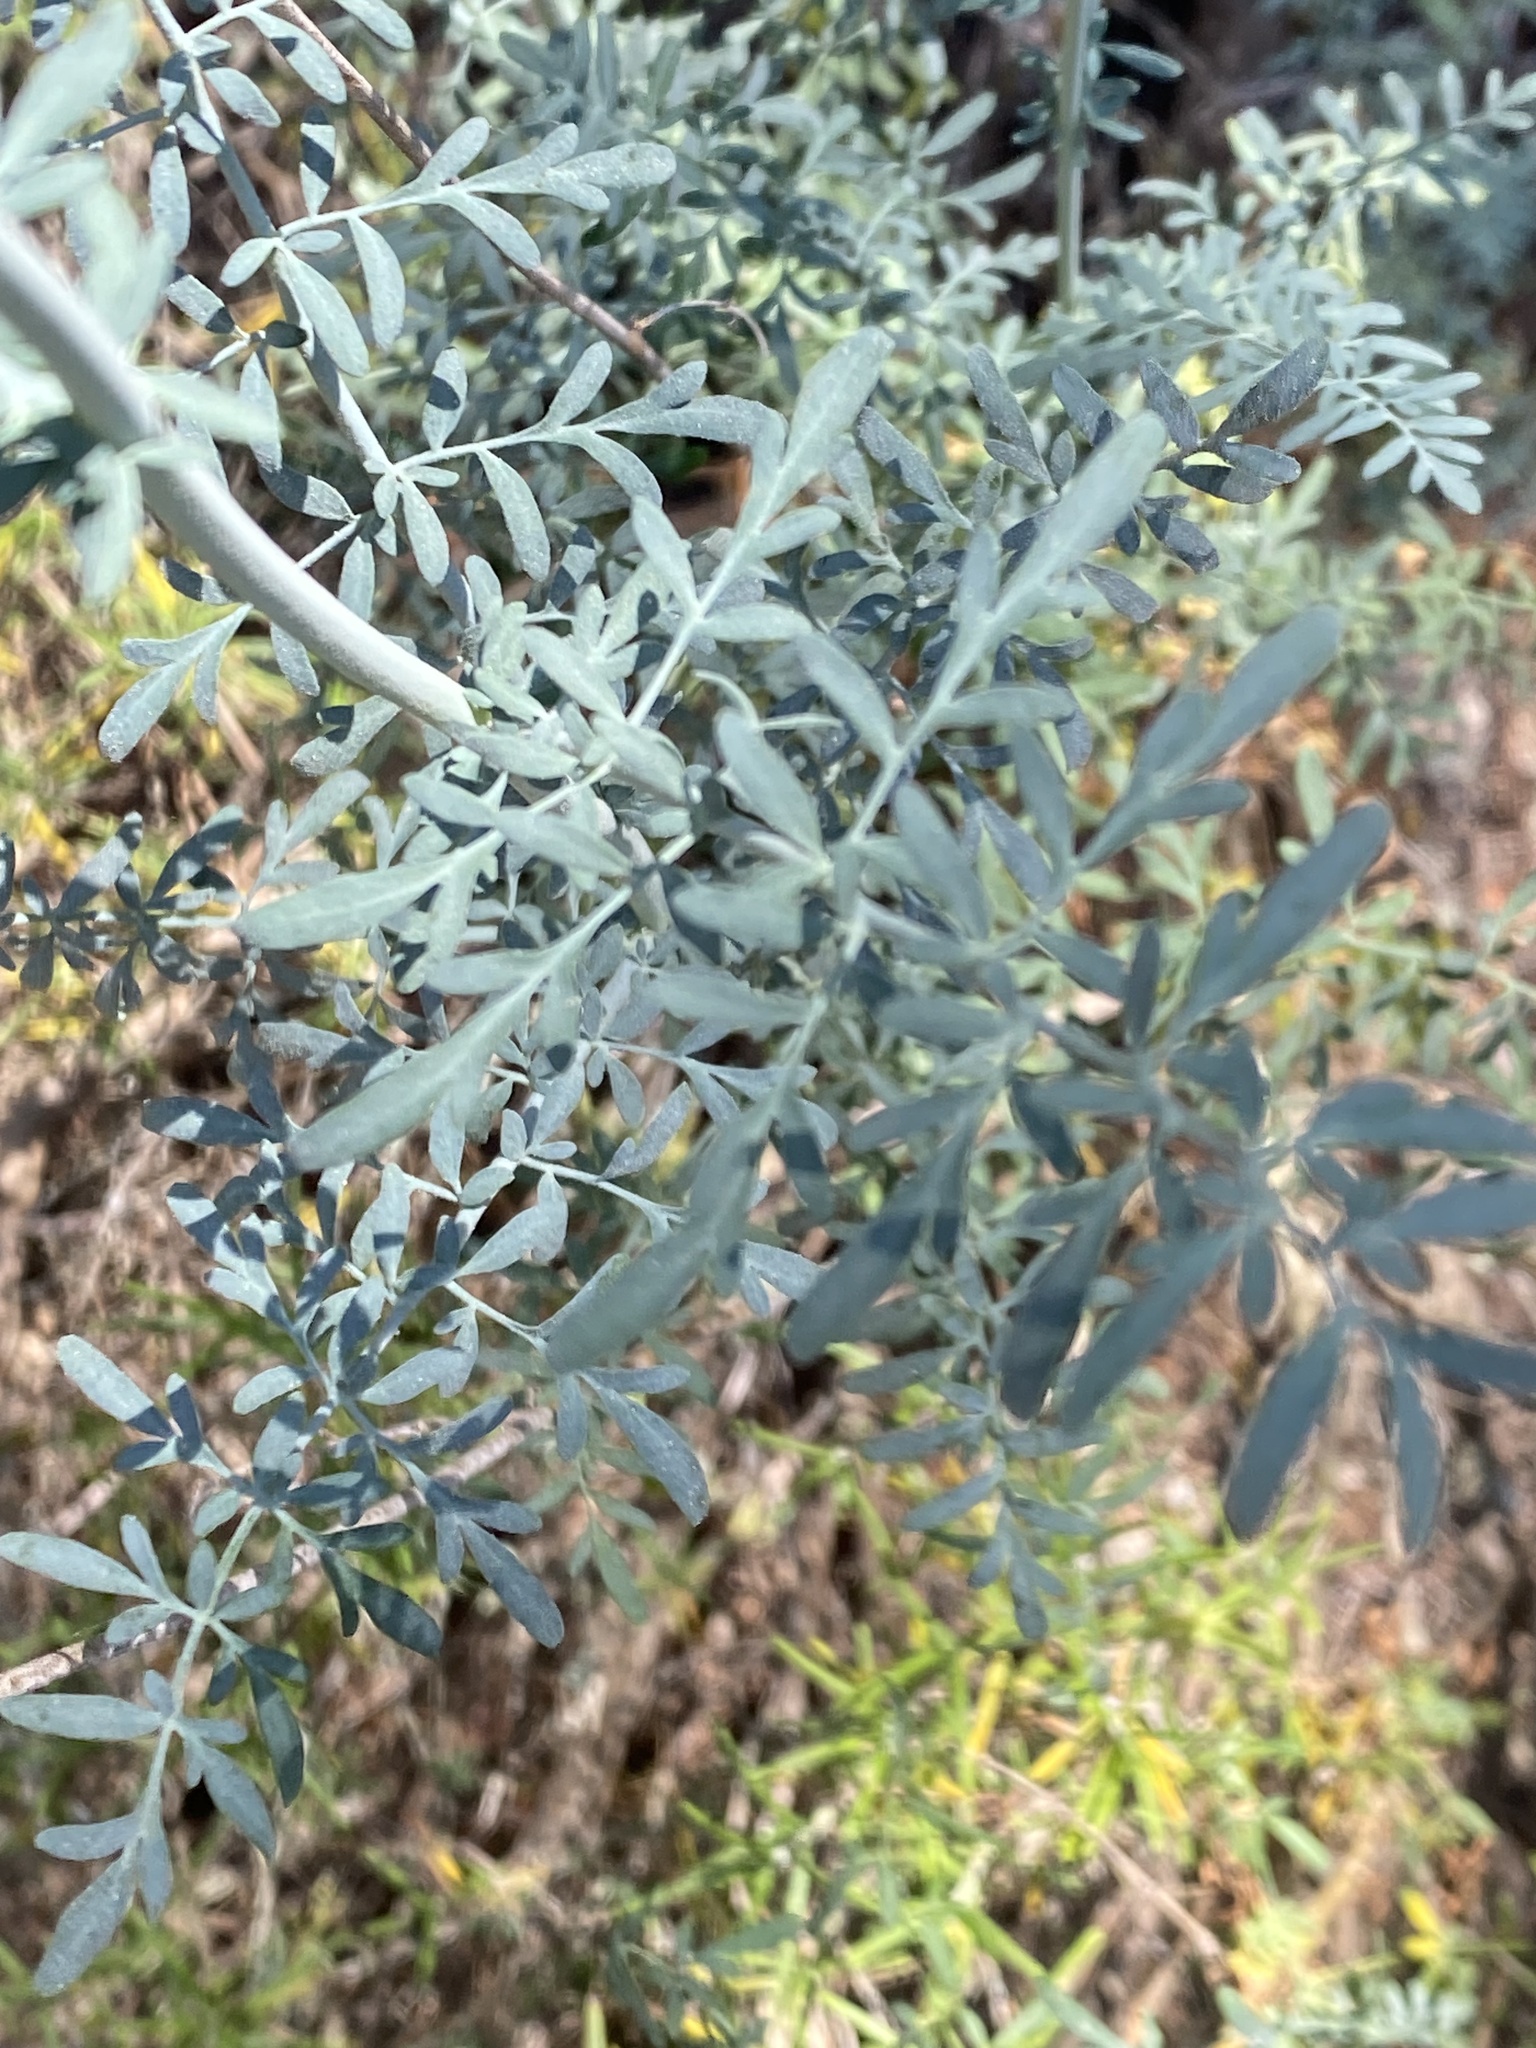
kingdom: Plantae
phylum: Tracheophyta
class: Magnoliopsida
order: Sapindales
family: Rutaceae
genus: Ruta
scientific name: Ruta angustifolia
